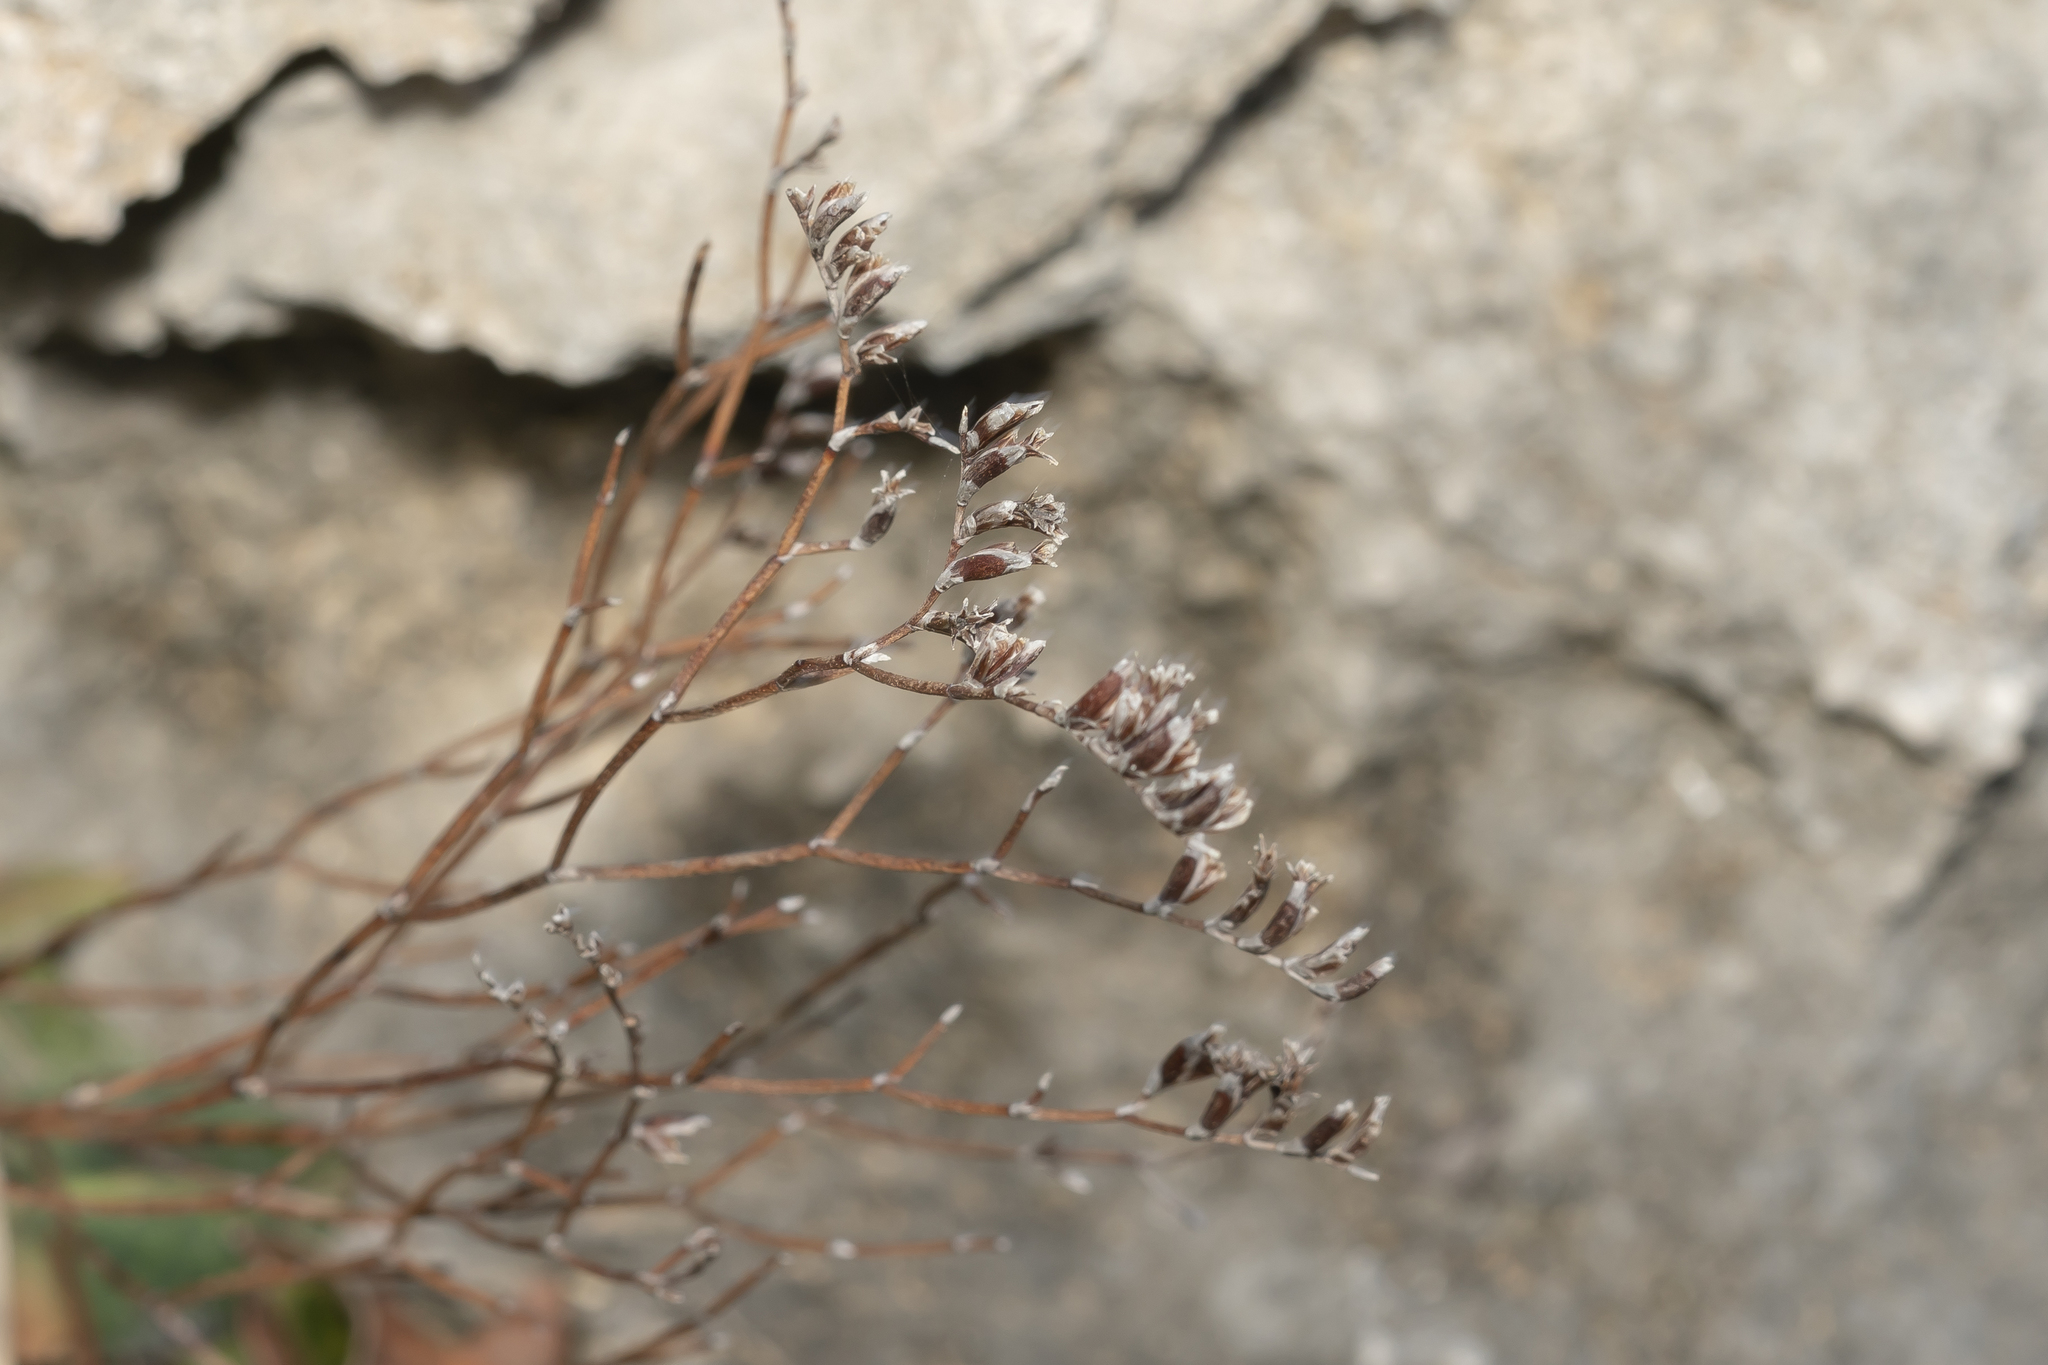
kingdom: Plantae
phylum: Tracheophyta
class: Magnoliopsida
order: Caryophyllales
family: Plumbaginaceae
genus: Limonium
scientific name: Limonium virgatum
